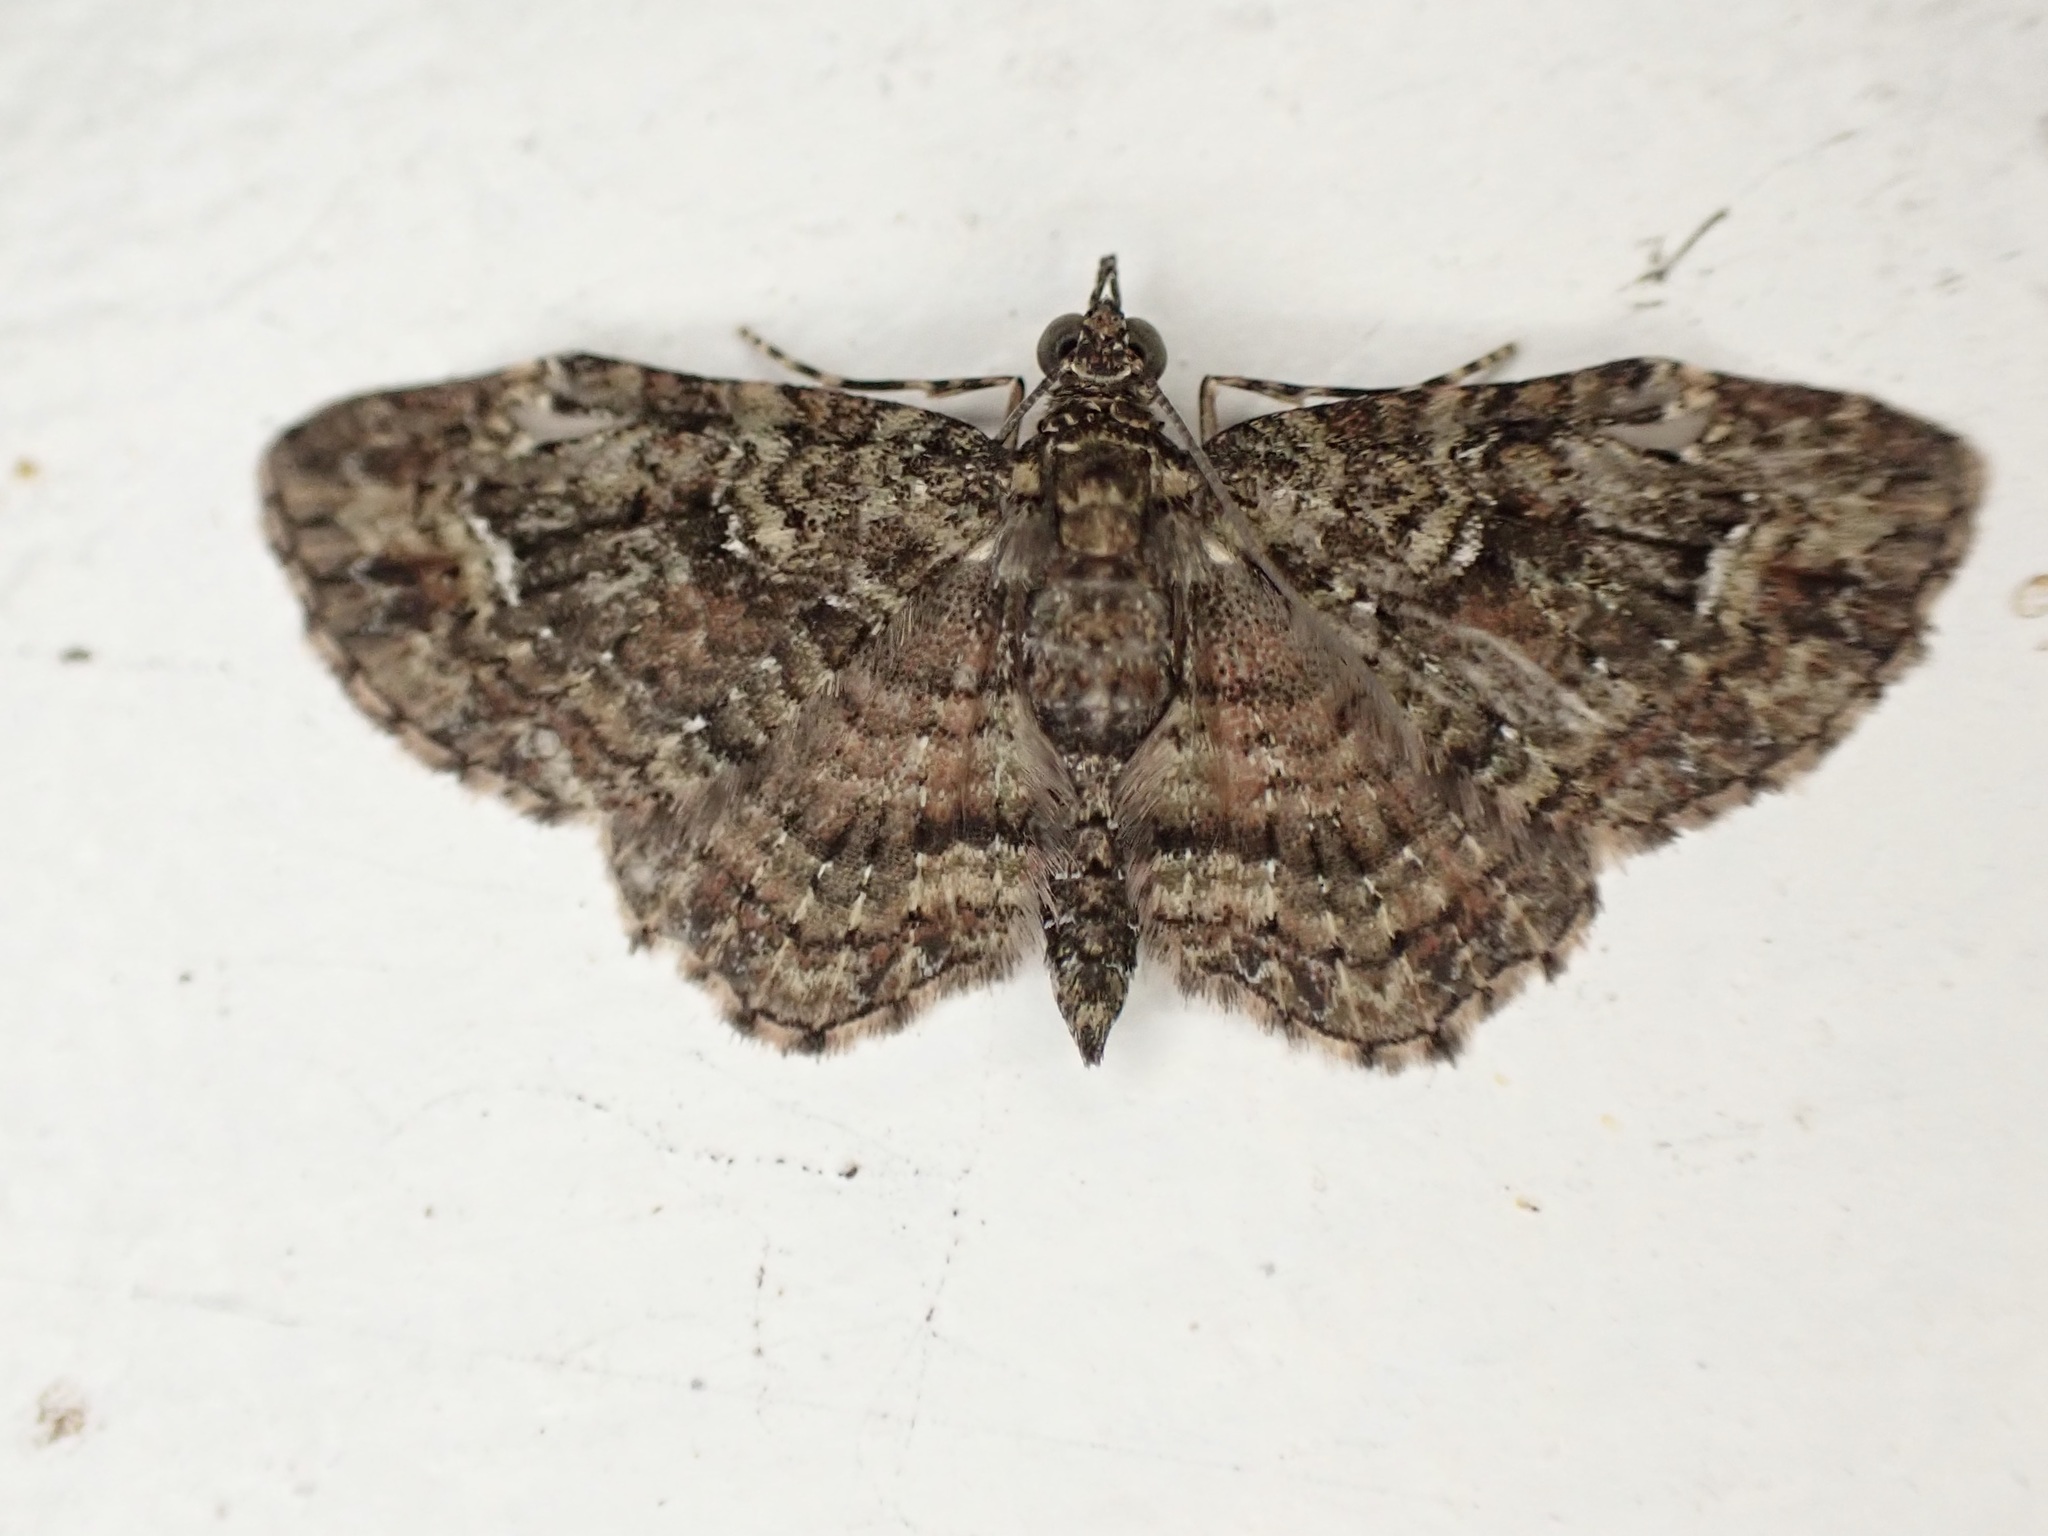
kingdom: Animalia
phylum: Arthropoda
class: Insecta
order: Lepidoptera
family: Geometridae
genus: Pasiphilodes
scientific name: Pasiphilodes testulata
